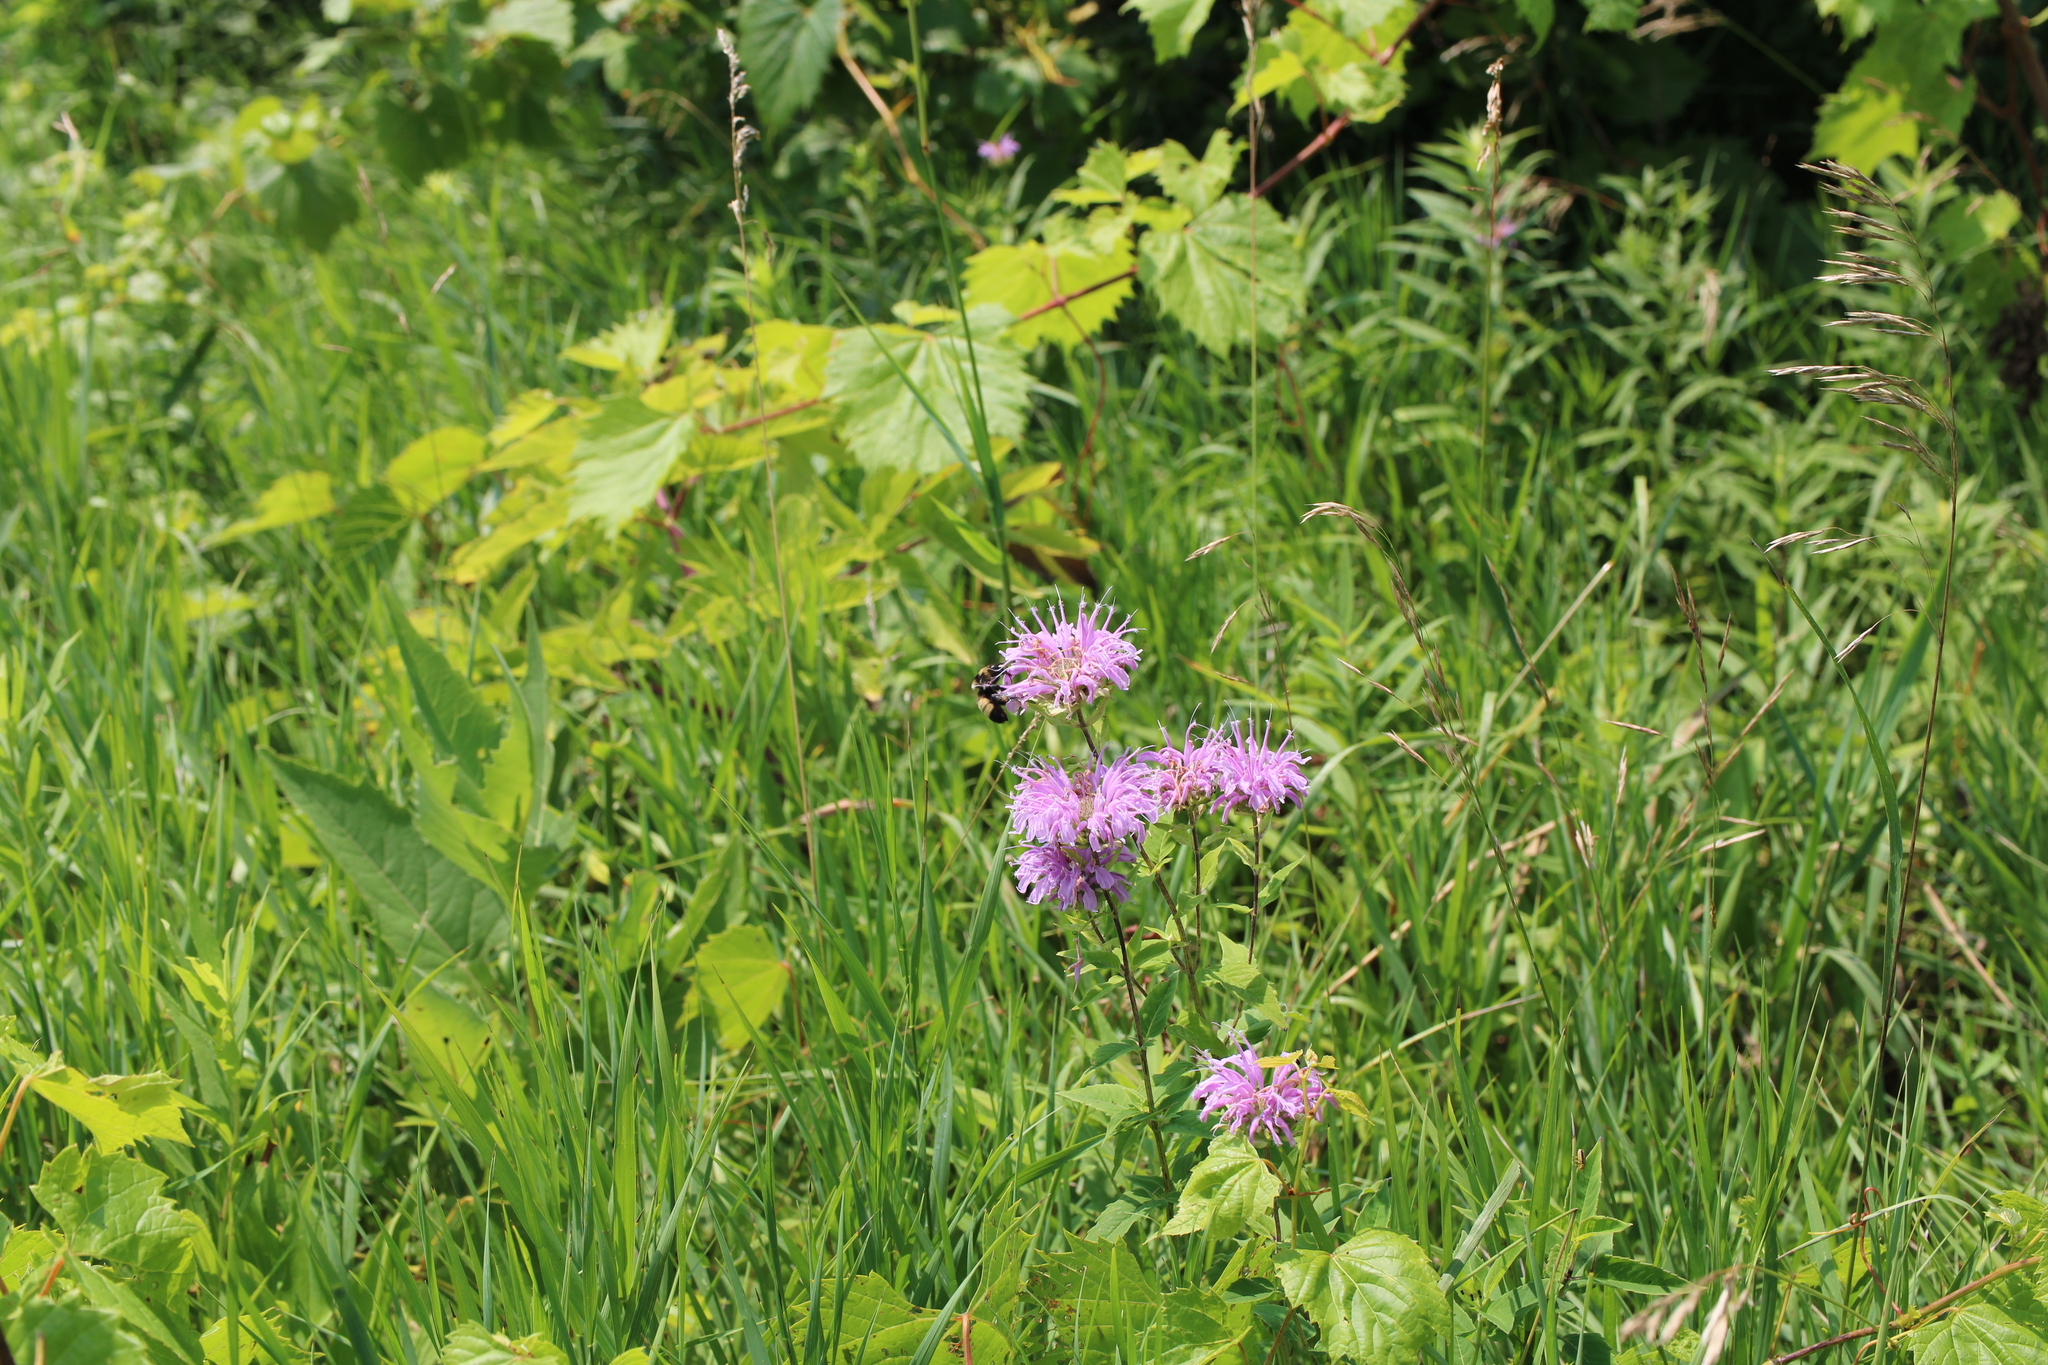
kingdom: Animalia
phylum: Arthropoda
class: Insecta
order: Hymenoptera
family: Apidae
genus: Bombus
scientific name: Bombus auricomus
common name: Black and gold bumble bee
